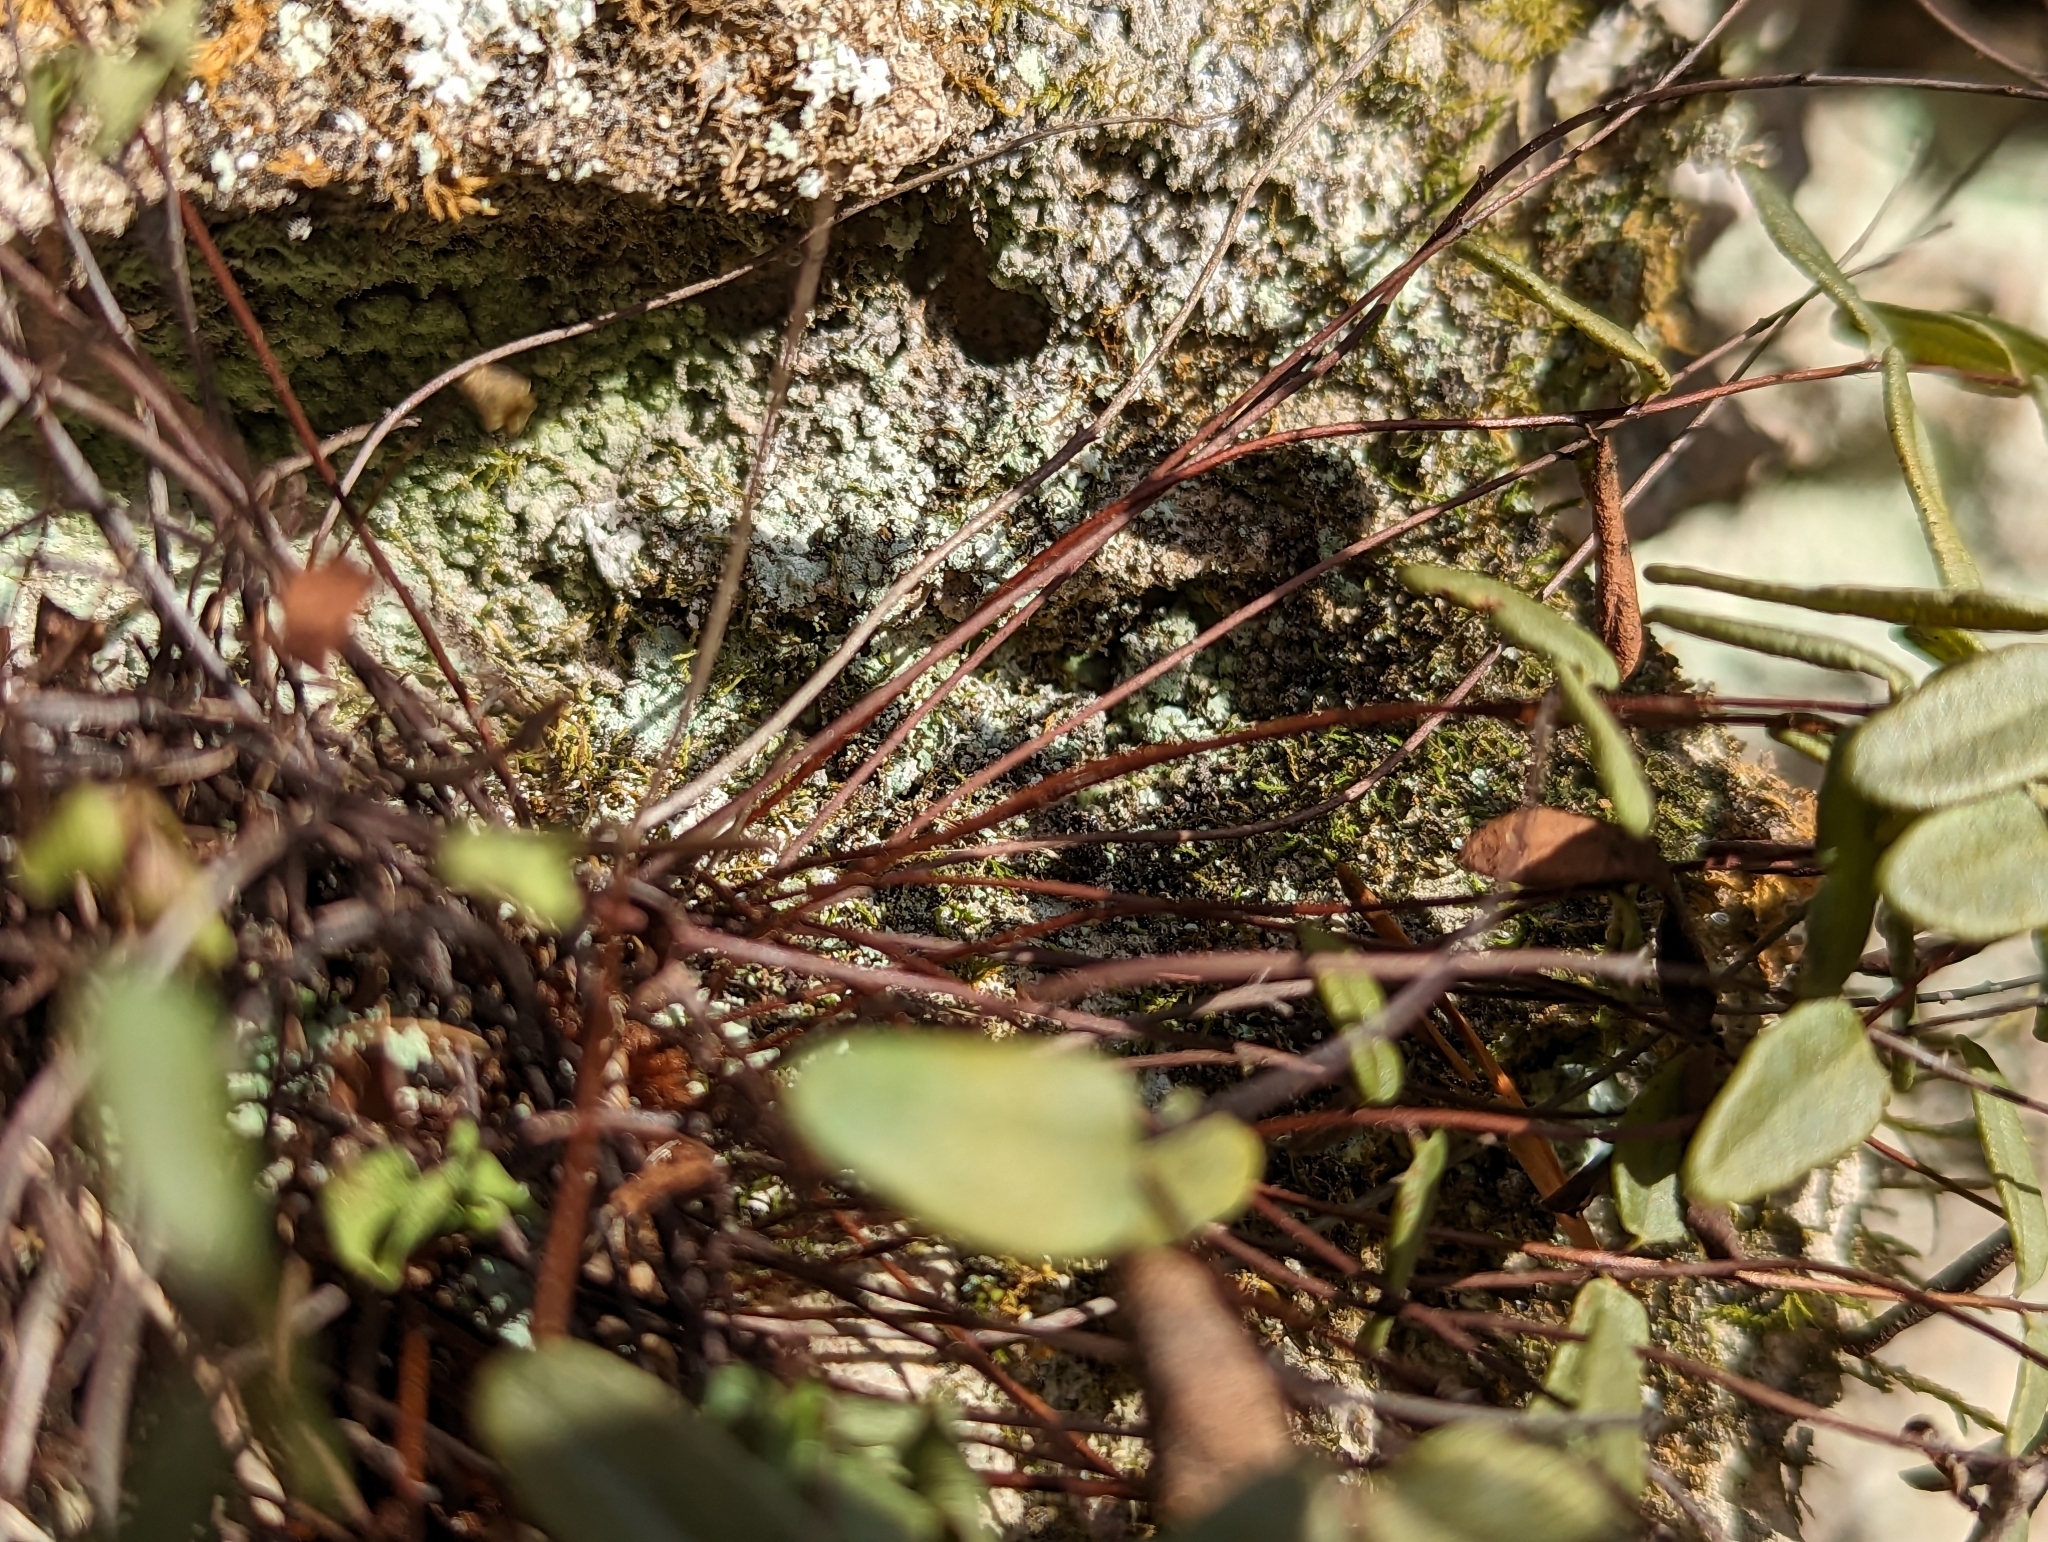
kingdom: Plantae
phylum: Tracheophyta
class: Polypodiopsida
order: Polypodiales
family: Pteridaceae
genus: Pellaea
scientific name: Pellaea glabella
